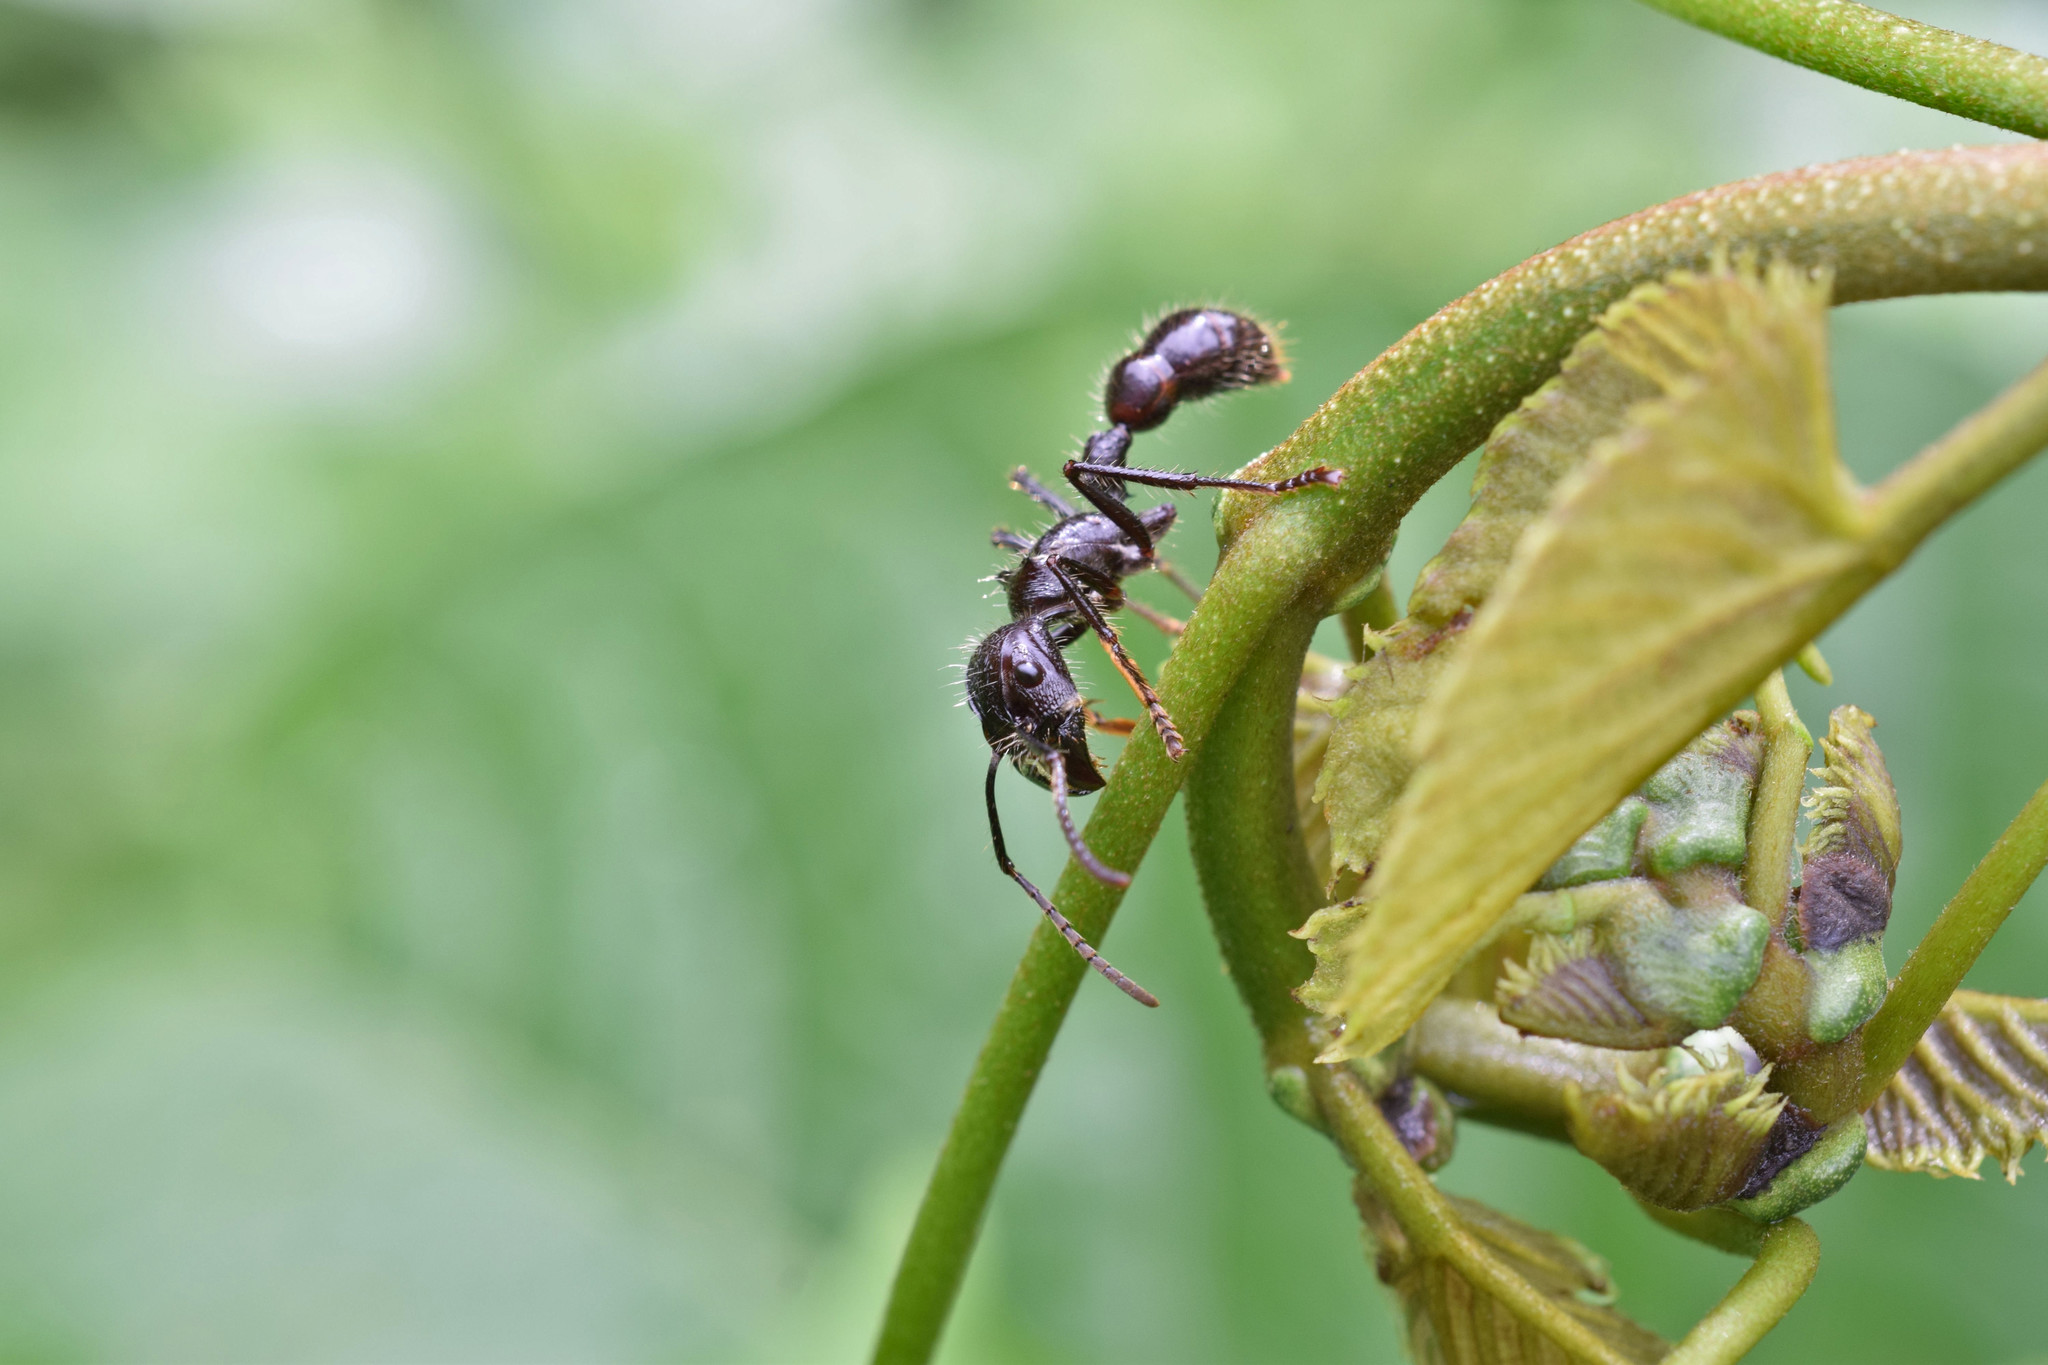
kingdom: Animalia
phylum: Arthropoda
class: Insecta
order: Hymenoptera
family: Formicidae
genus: Paraponera
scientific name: Paraponera clavata
